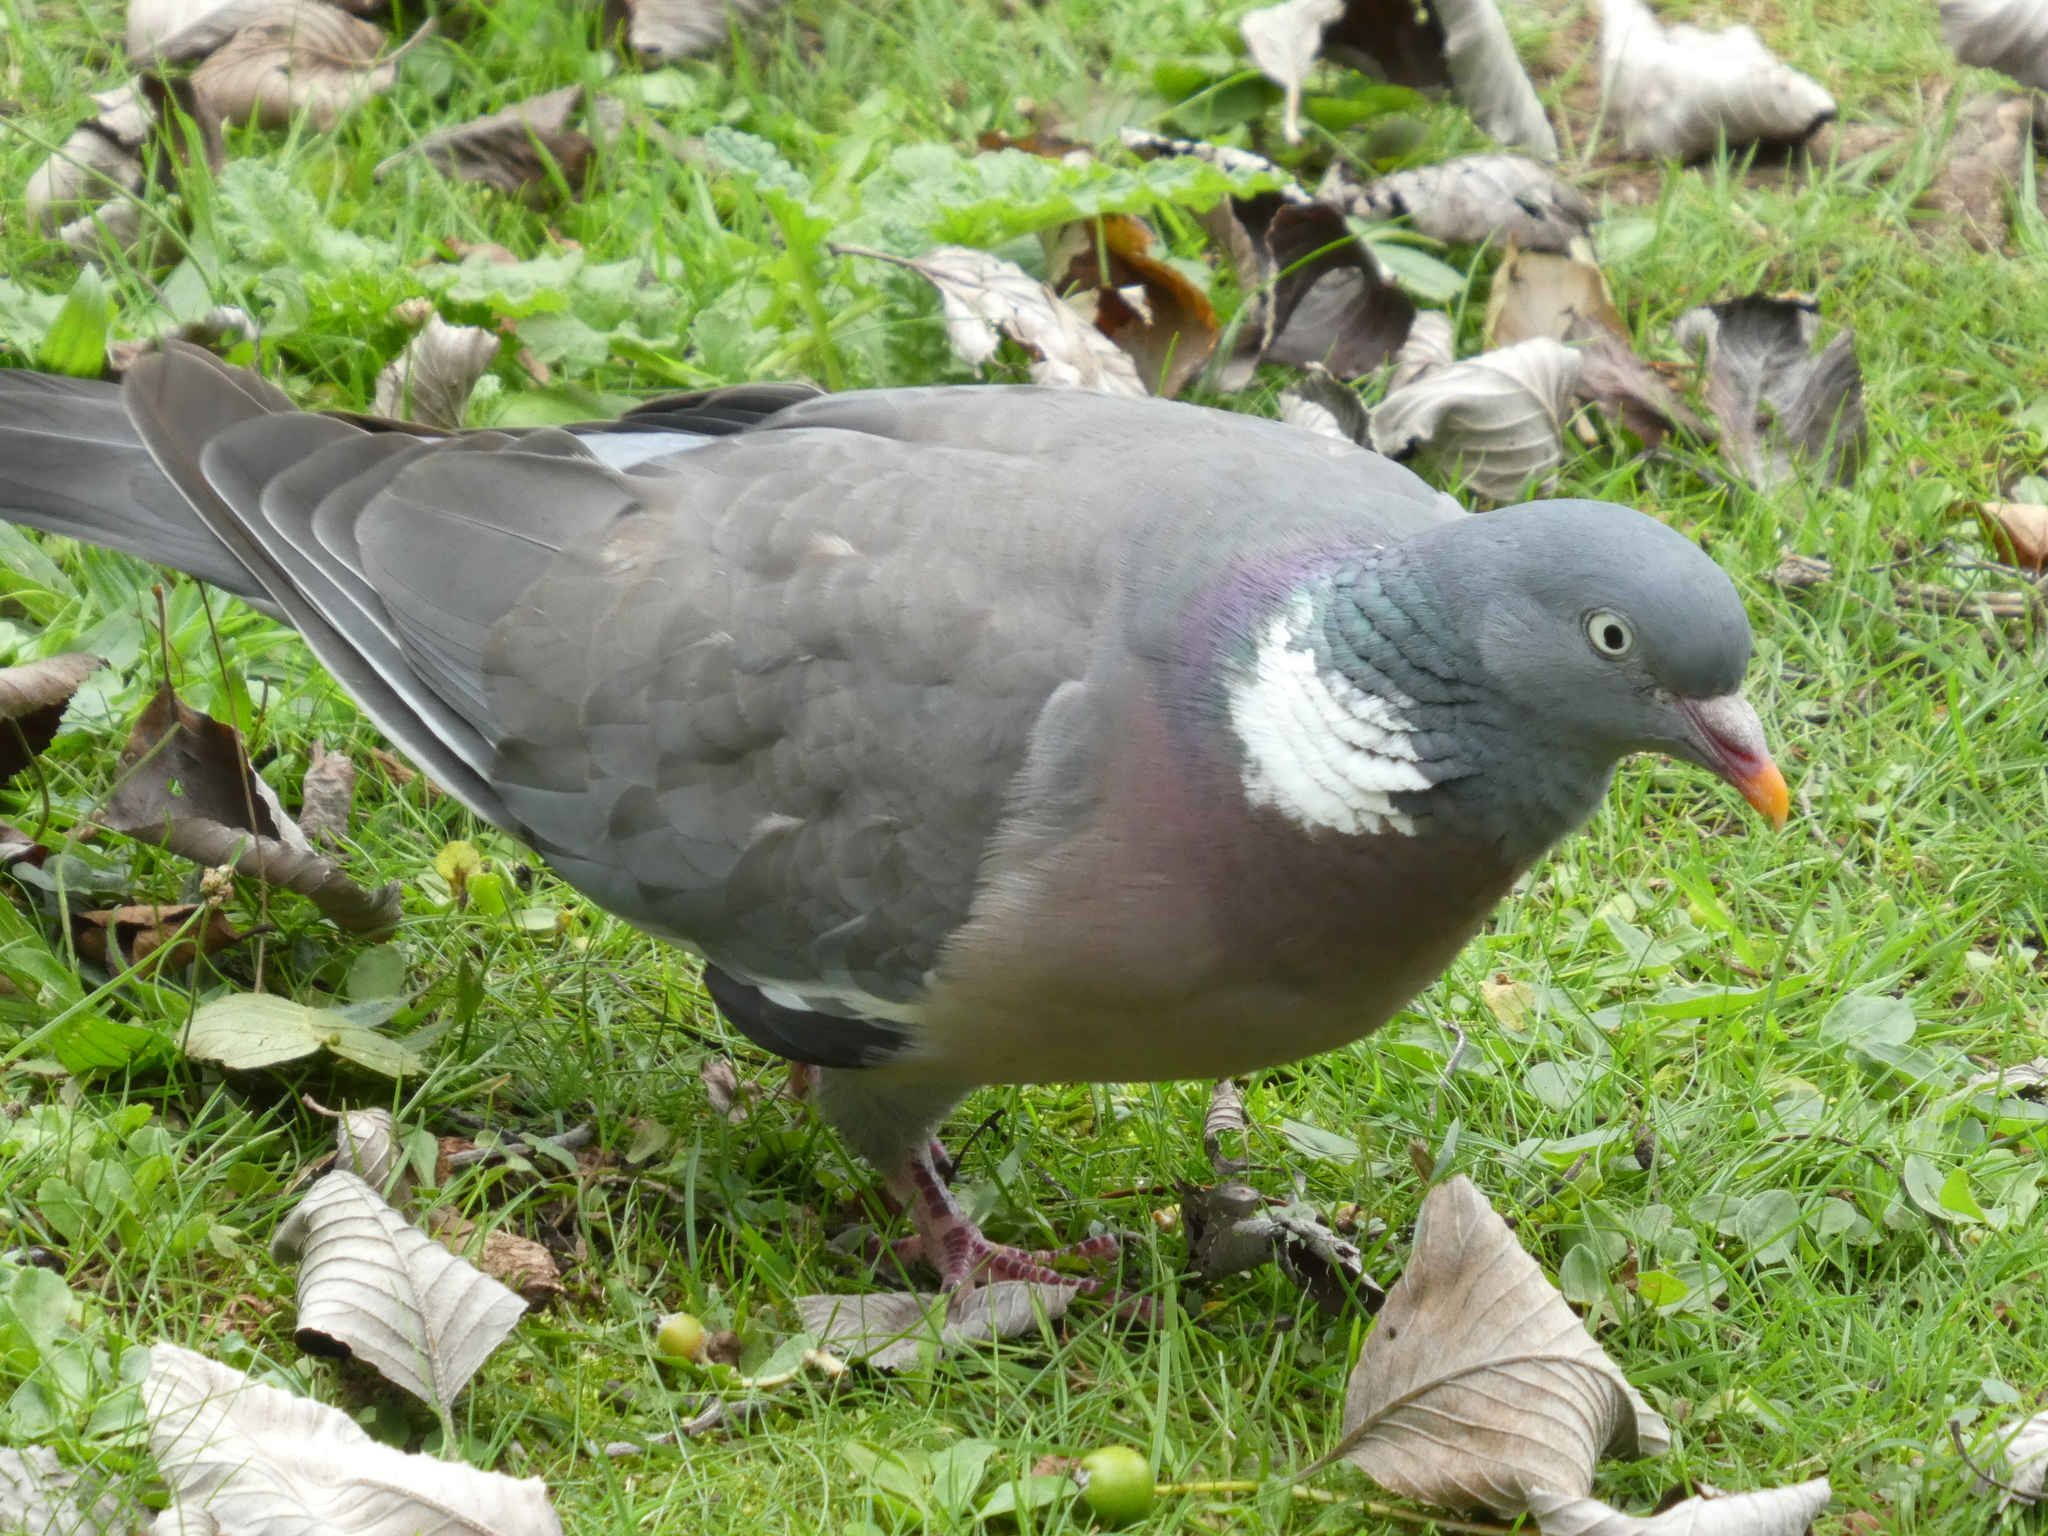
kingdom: Animalia
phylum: Chordata
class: Aves
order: Columbiformes
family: Columbidae
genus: Columba
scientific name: Columba palumbus
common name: Common wood pigeon
